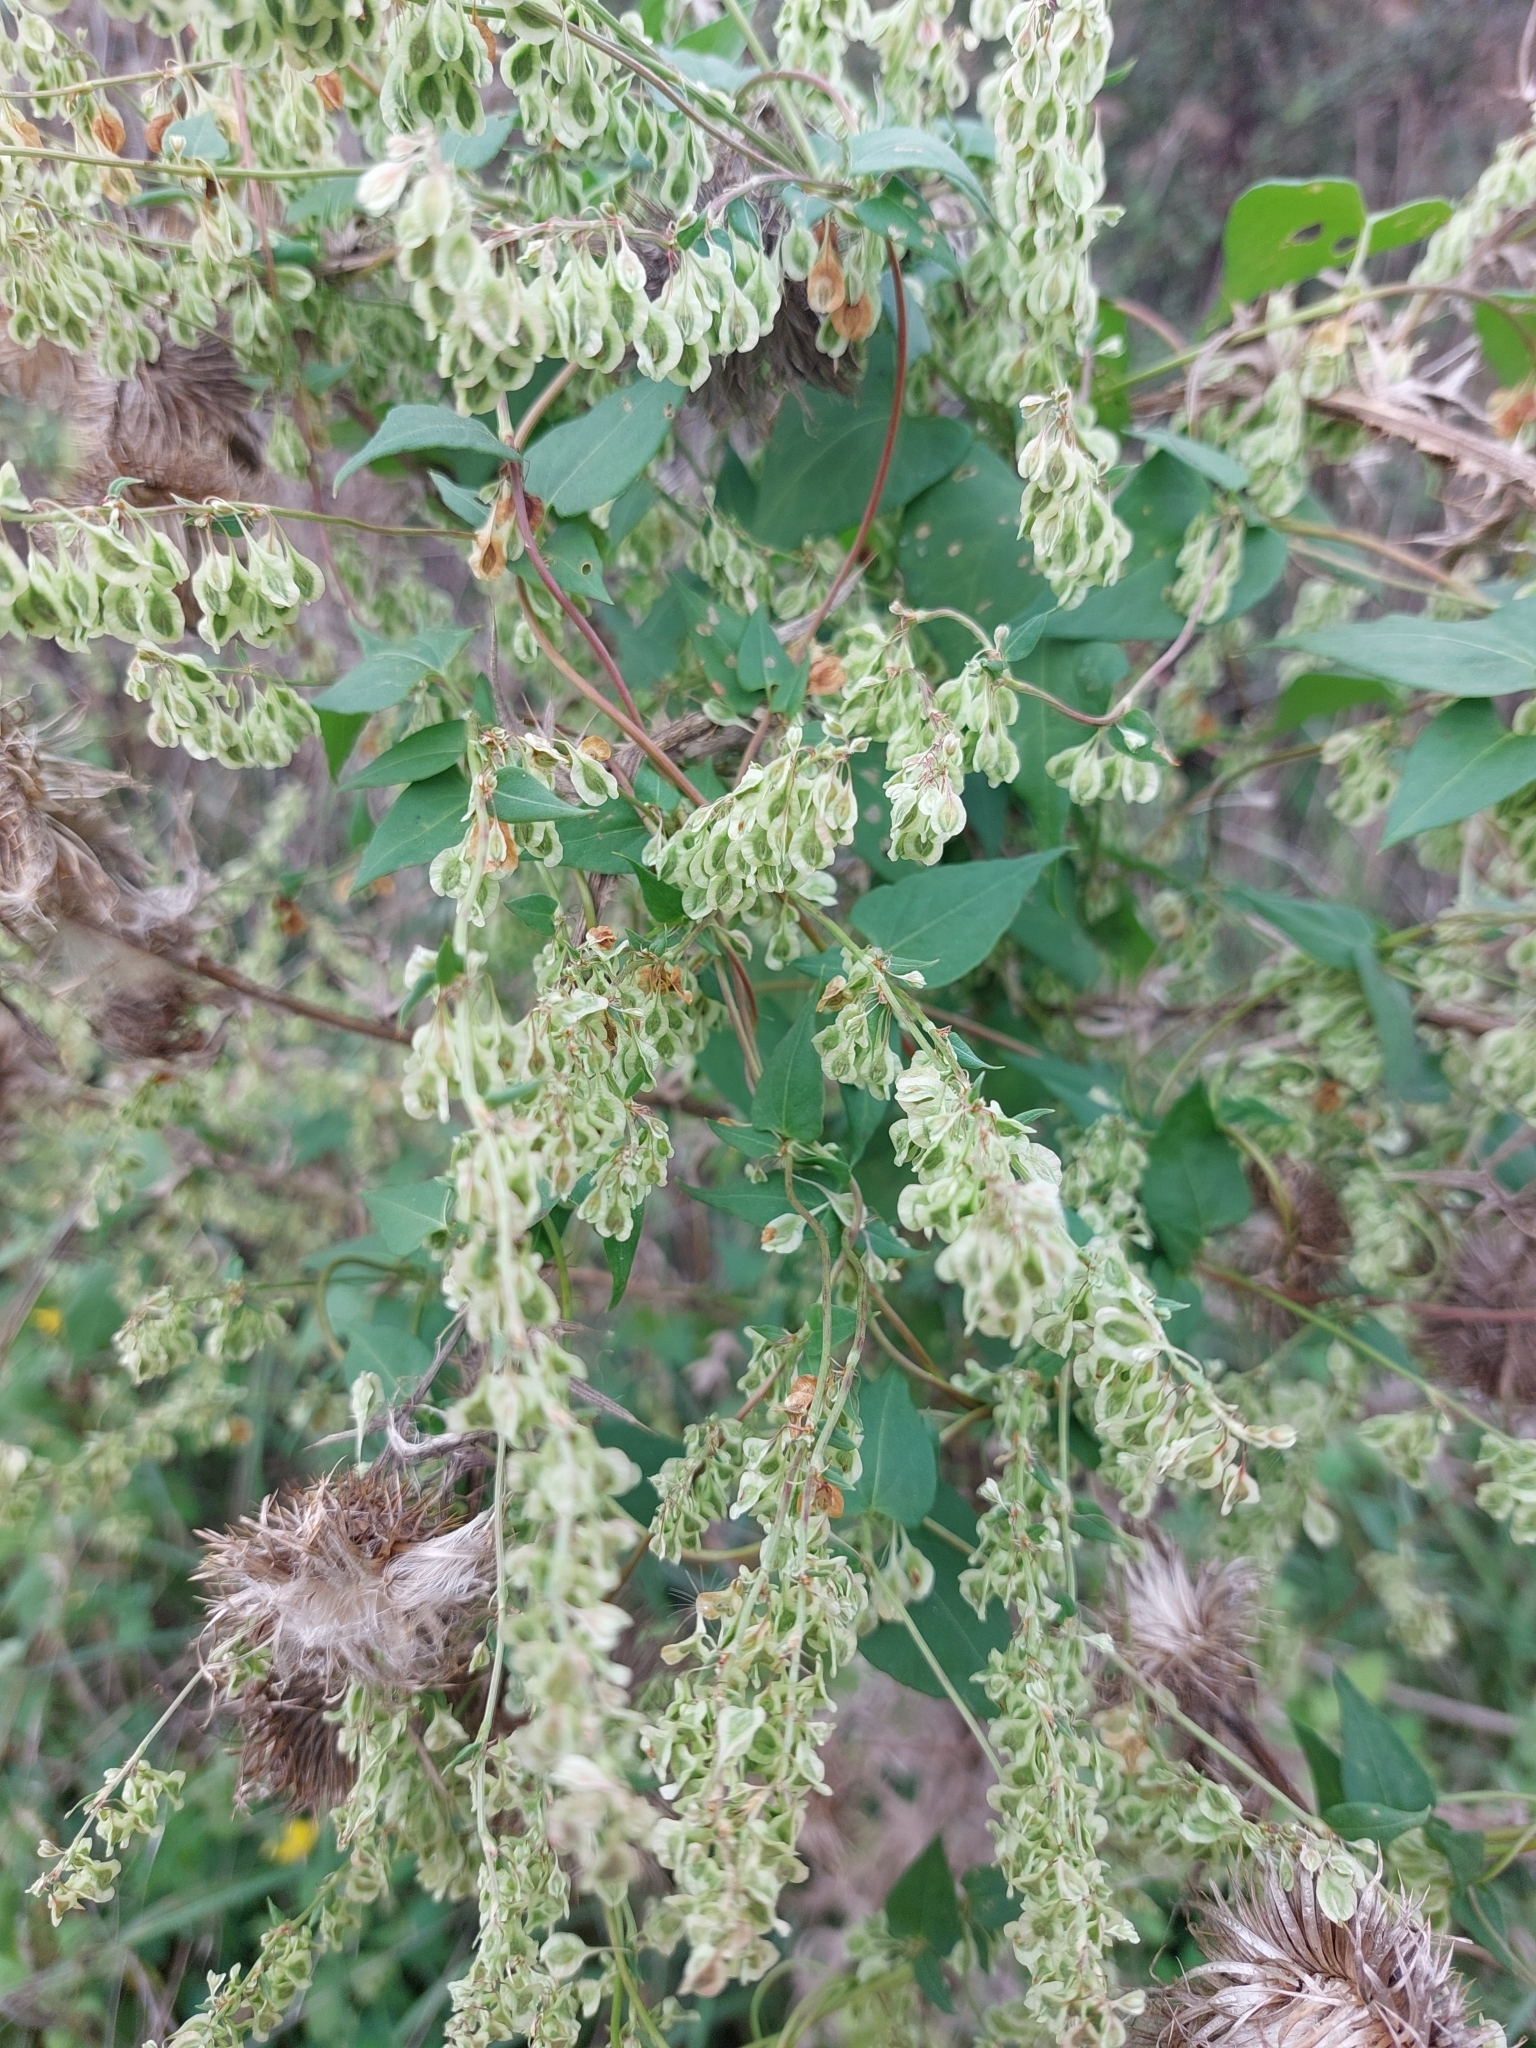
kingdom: Plantae
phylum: Tracheophyta
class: Magnoliopsida
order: Caryophyllales
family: Polygonaceae
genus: Fallopia
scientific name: Fallopia dumetorum
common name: Copse-bindweed
